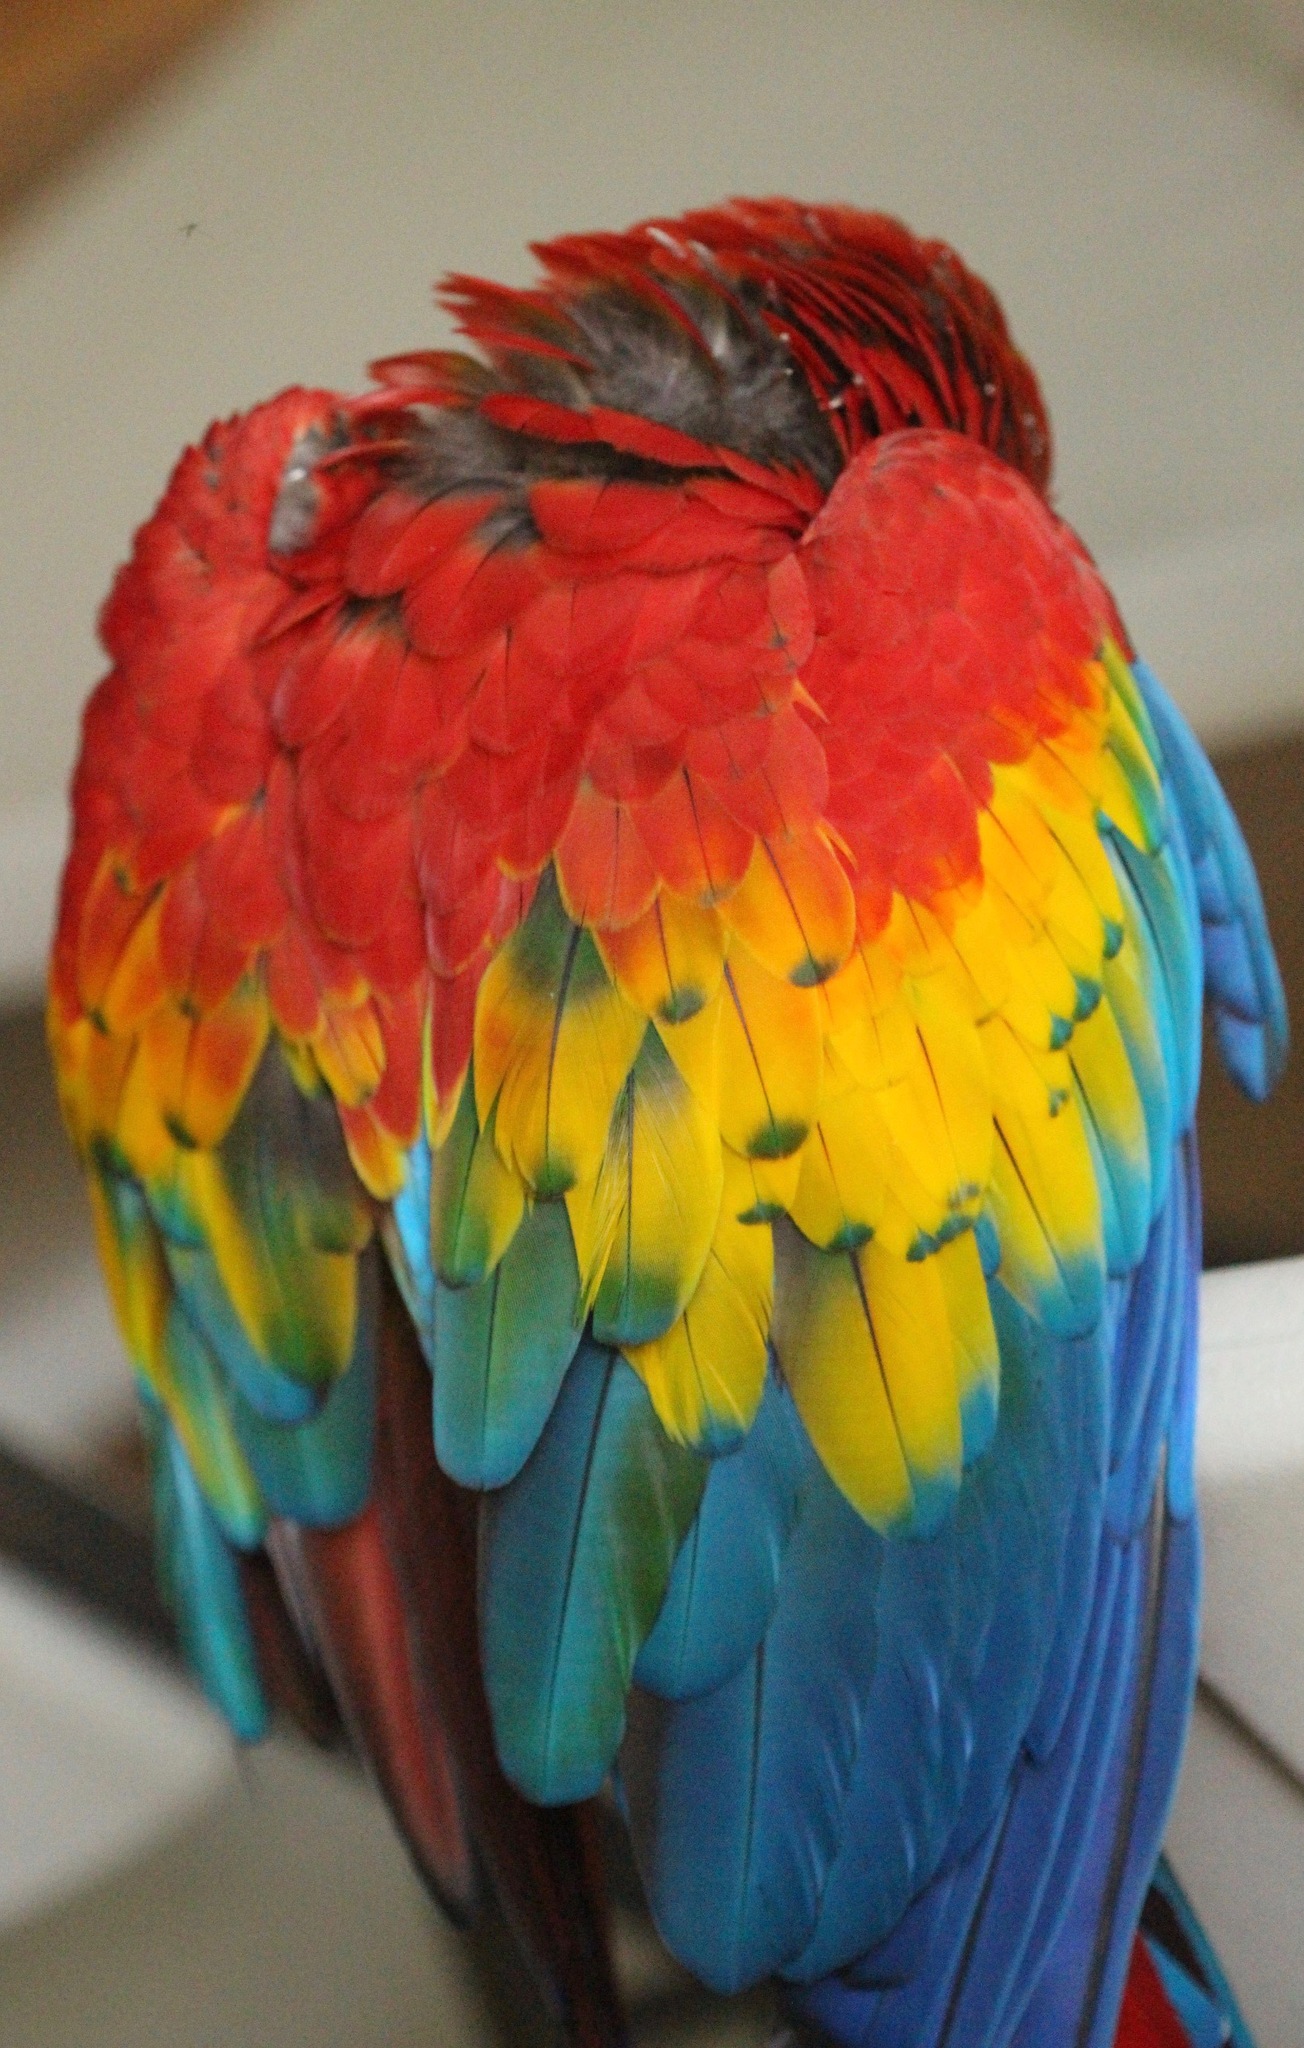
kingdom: Animalia
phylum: Chordata
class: Aves
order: Psittaciformes
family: Psittacidae
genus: Ara
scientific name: Ara macao
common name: Scarlet macaw
